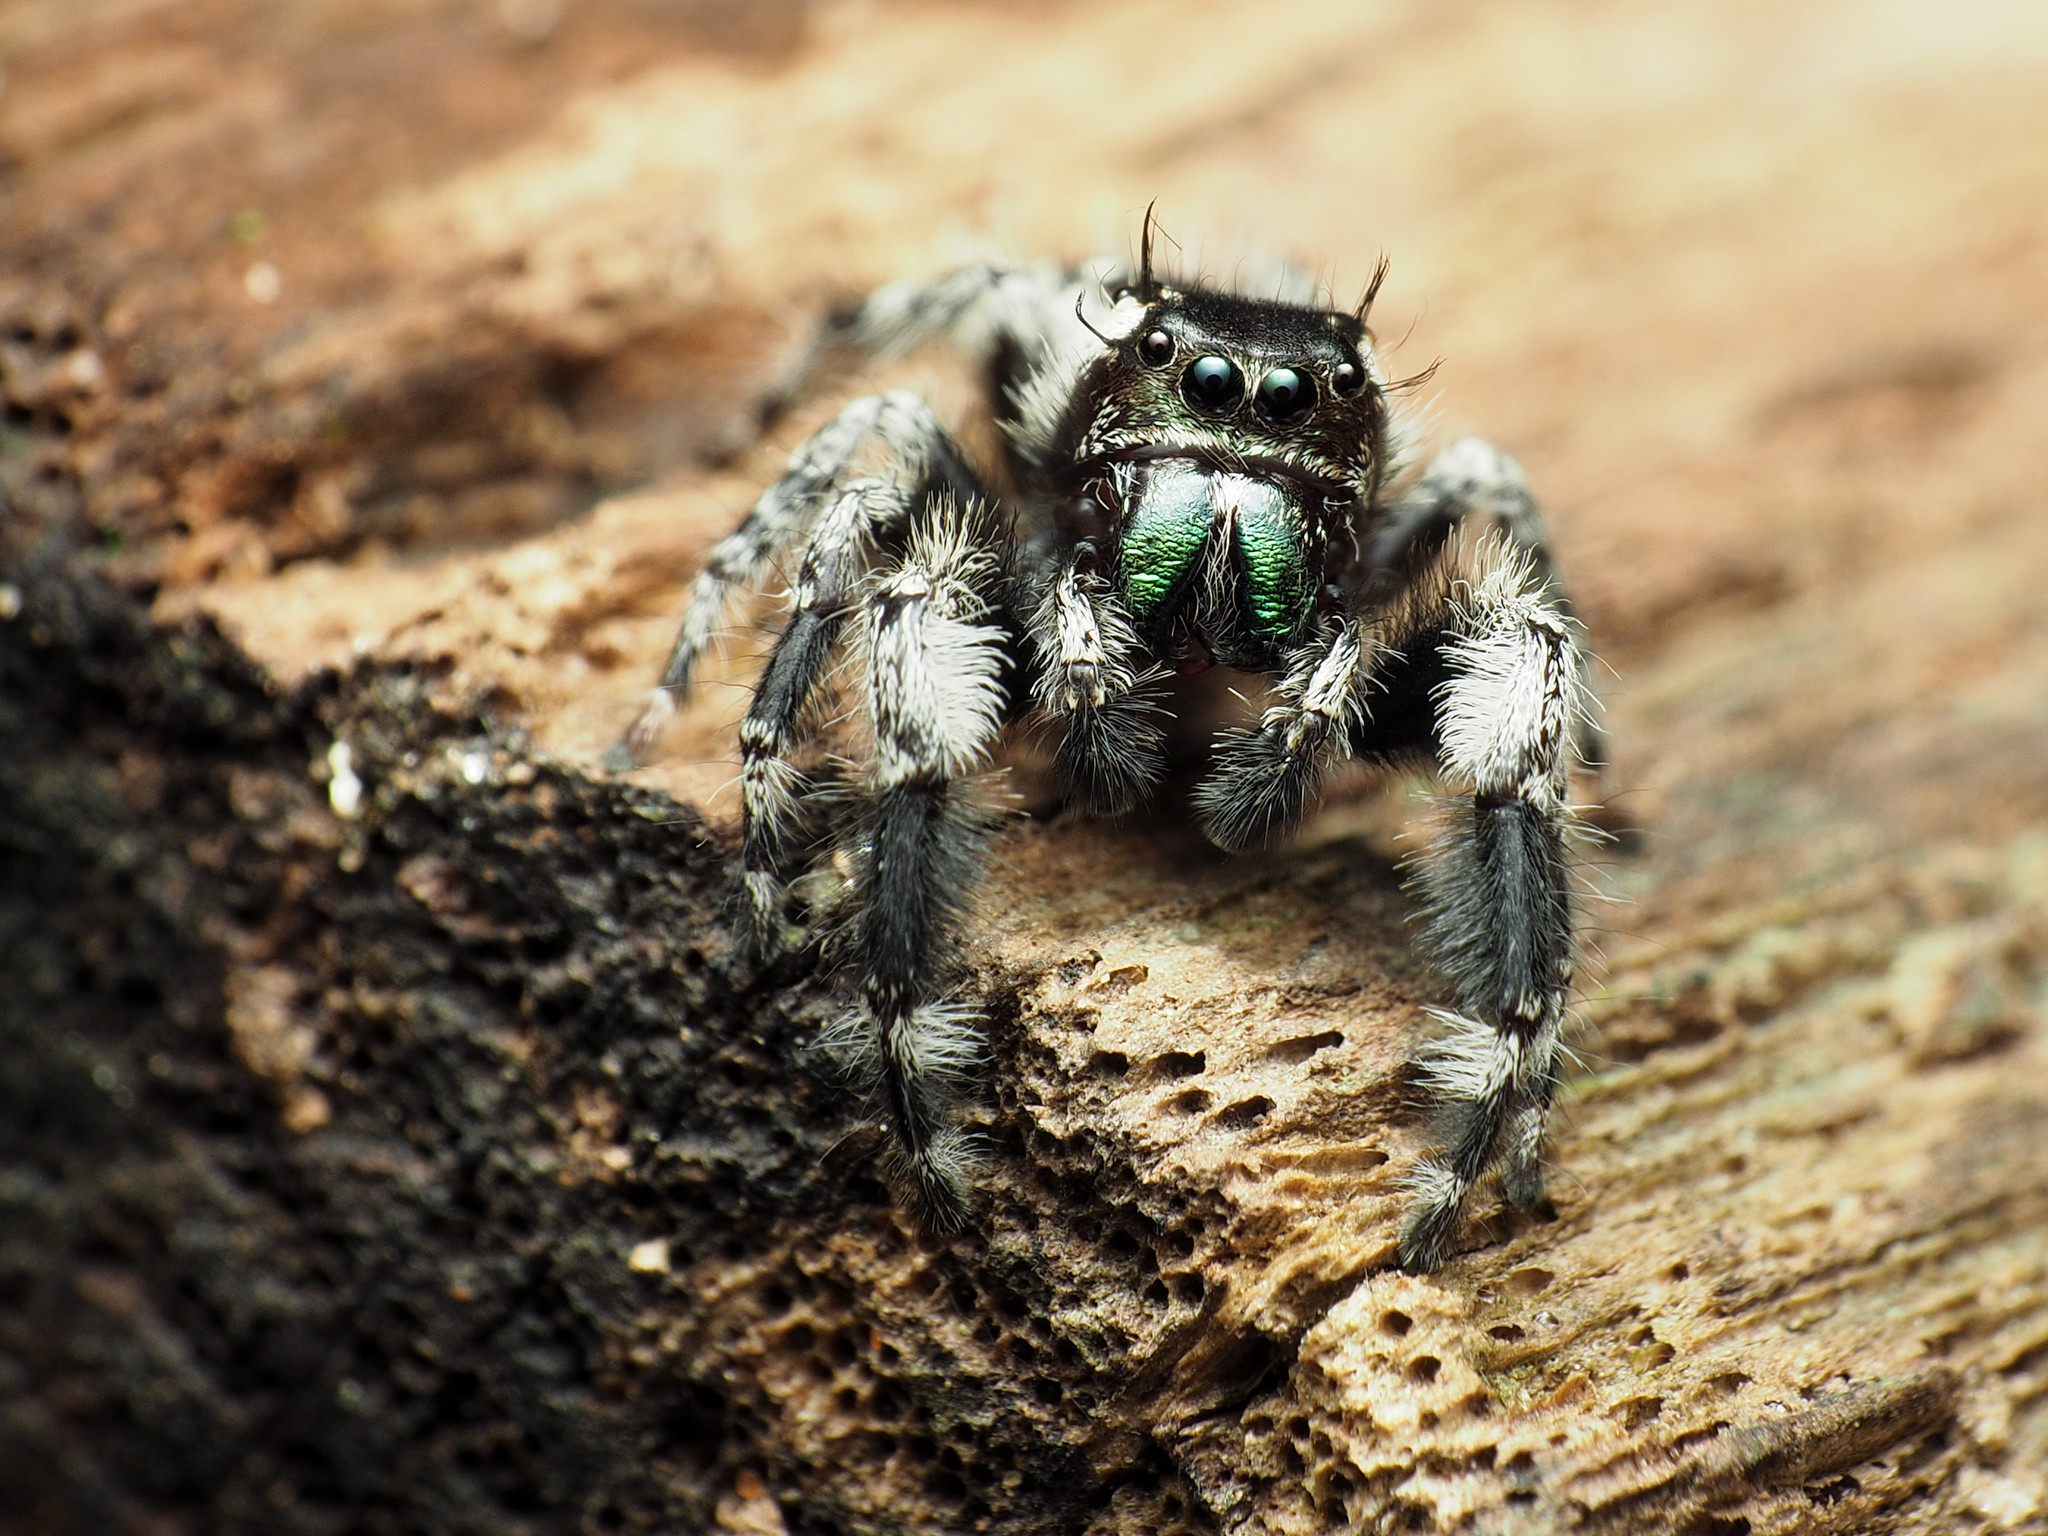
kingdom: Animalia
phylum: Arthropoda
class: Arachnida
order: Araneae
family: Salticidae
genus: Phidippus
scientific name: Phidippus otiosus
